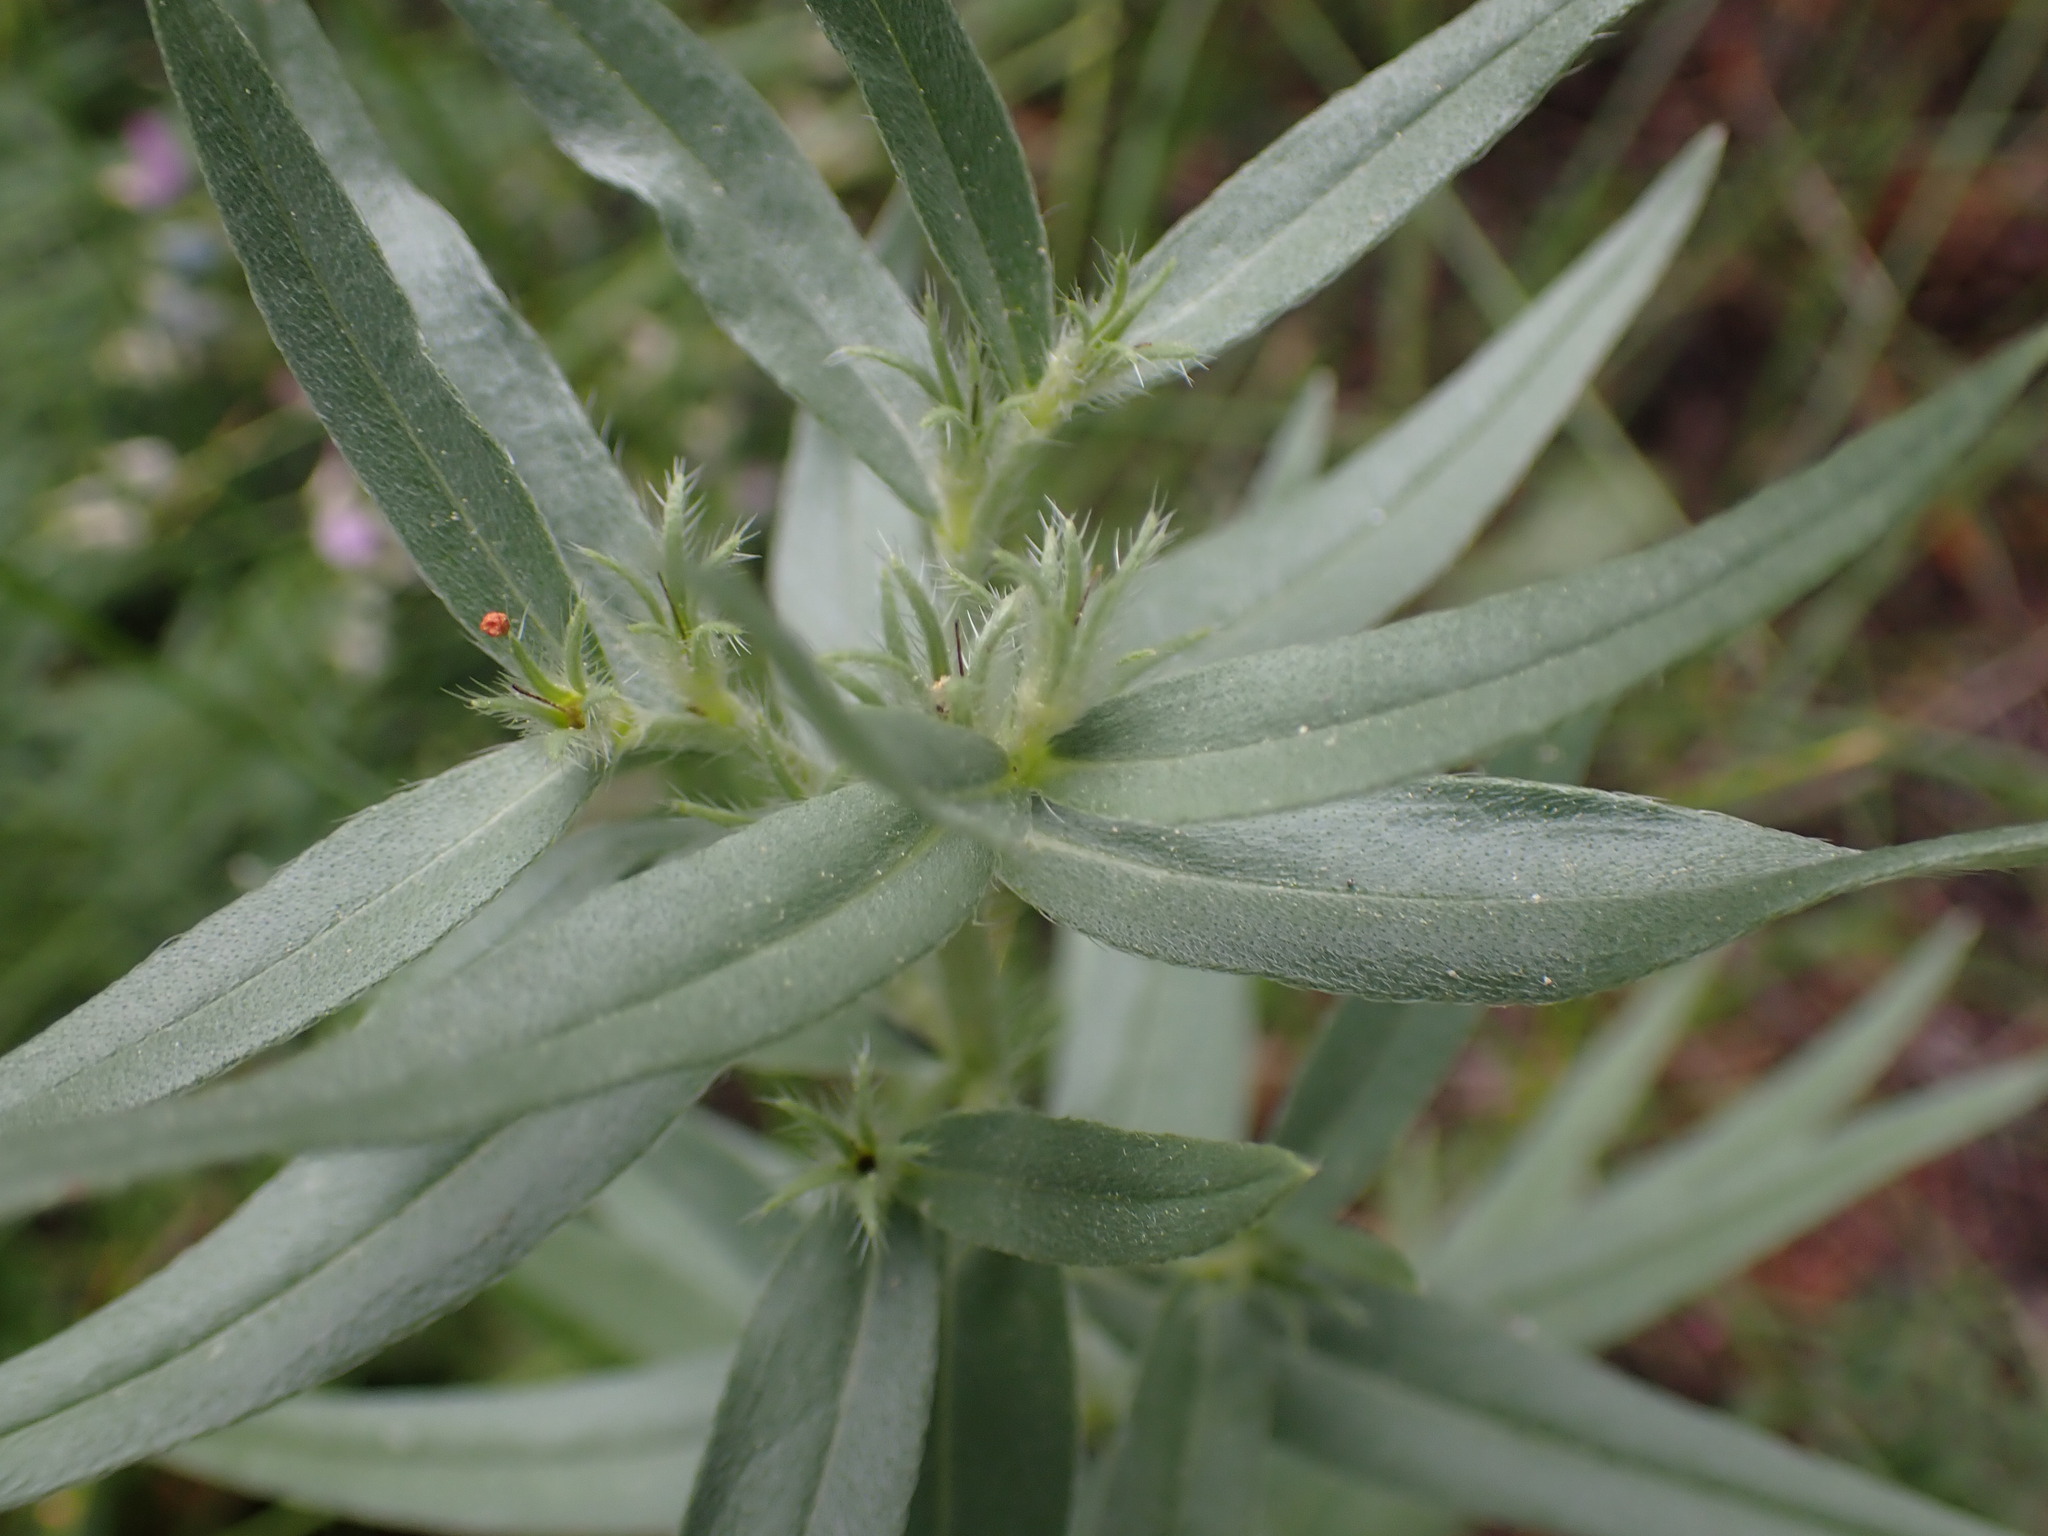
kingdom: Plantae
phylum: Tracheophyta
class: Magnoliopsida
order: Boraginales
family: Boraginaceae
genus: Lithospermum
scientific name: Lithospermum ruderale
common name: Western gromwell
